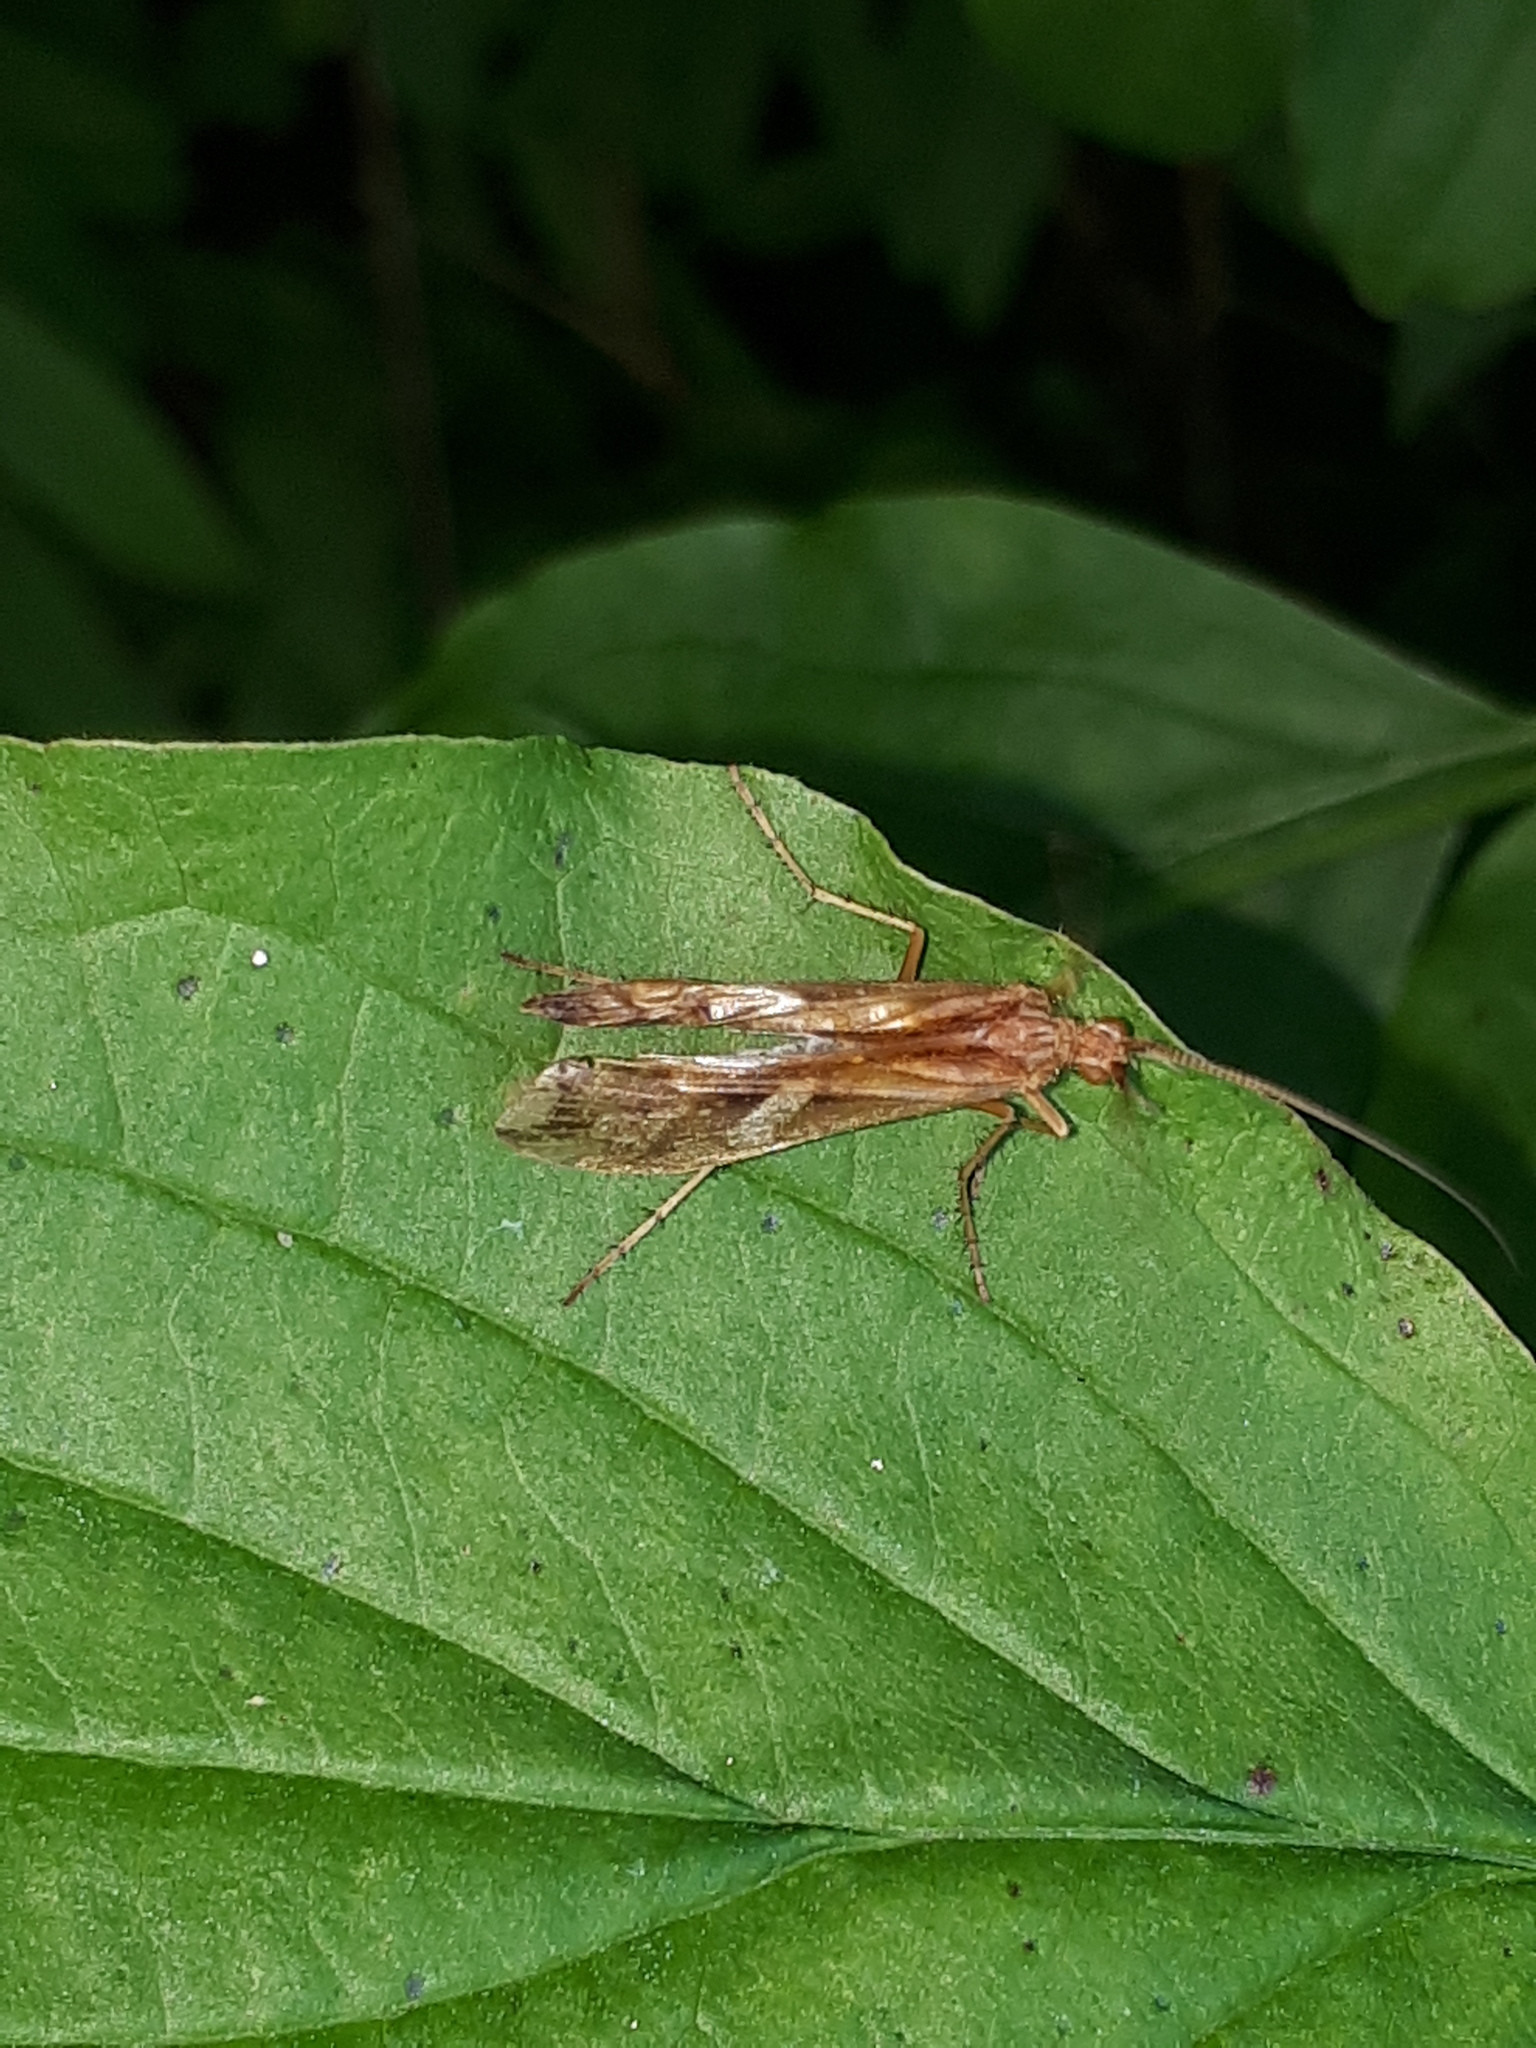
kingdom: Animalia
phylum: Arthropoda
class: Insecta
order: Trichoptera
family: Limnephilidae
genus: Limnephilus
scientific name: Limnephilus lunatus
